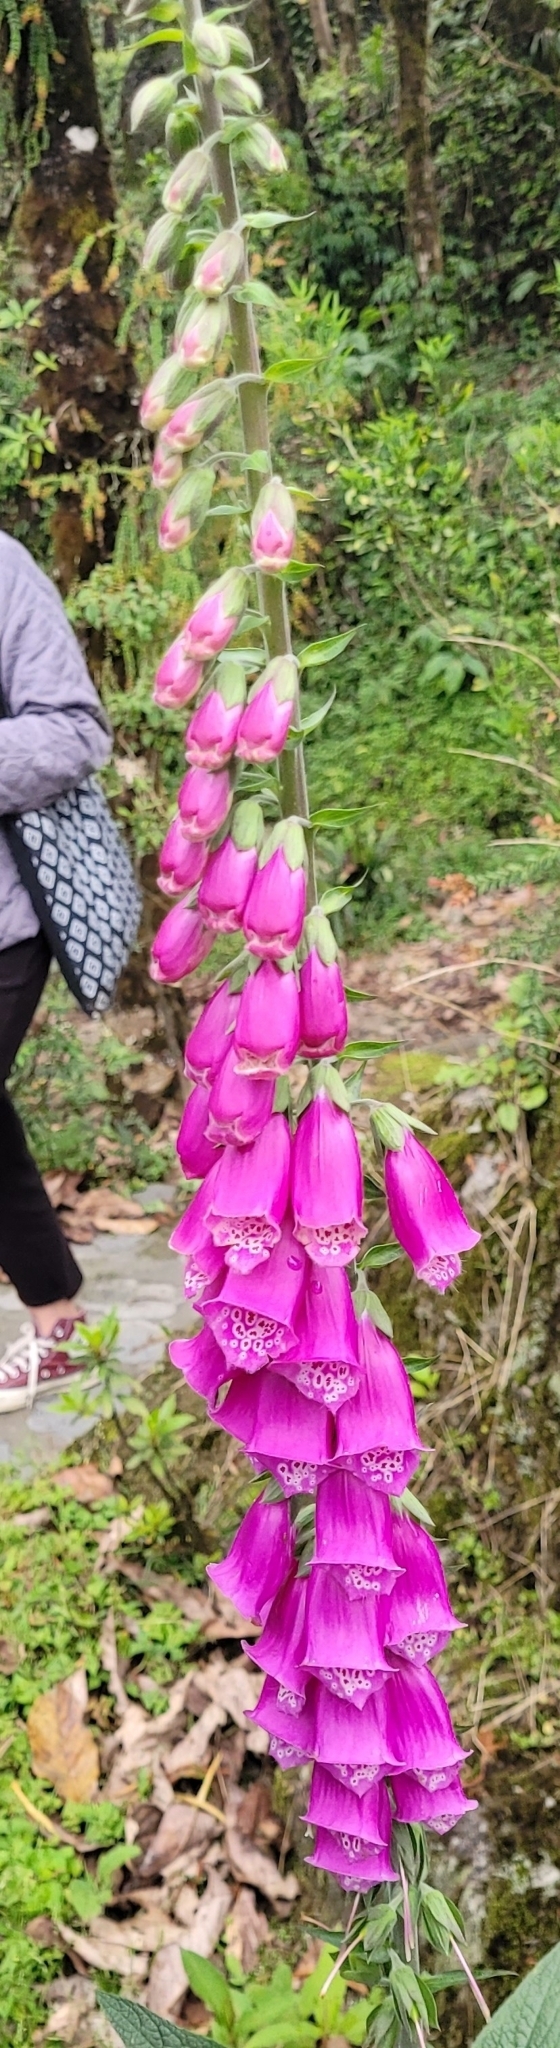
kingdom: Plantae
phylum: Tracheophyta
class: Magnoliopsida
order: Lamiales
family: Plantaginaceae
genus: Digitalis
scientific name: Digitalis purpurea
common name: Foxglove
